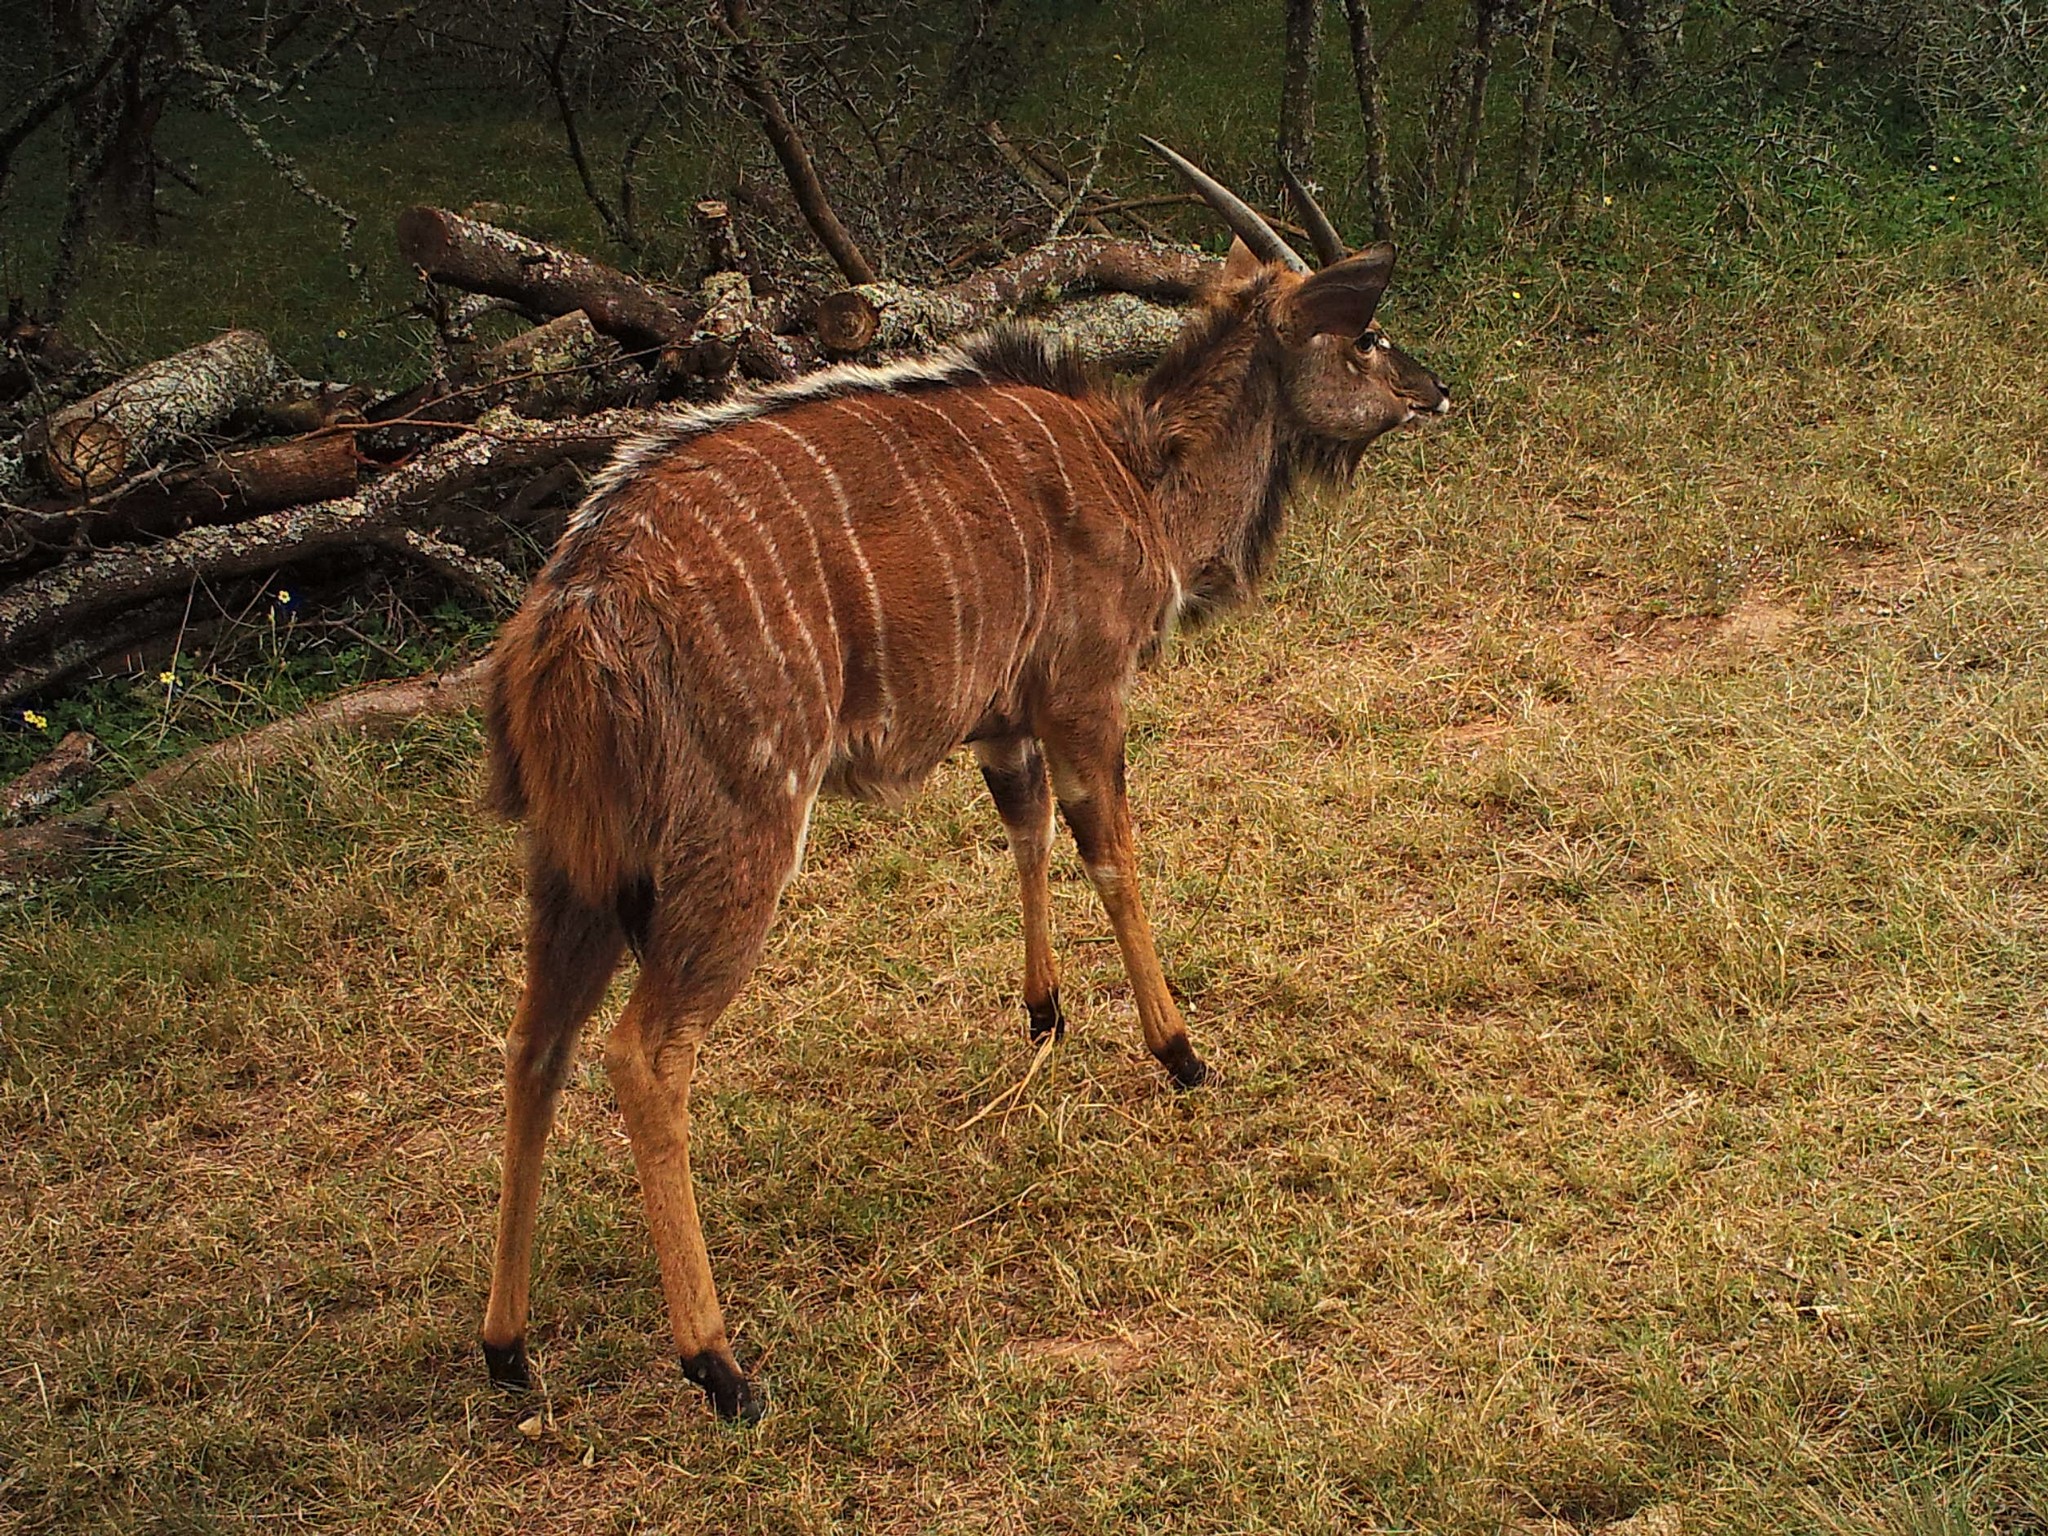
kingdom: Animalia
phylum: Chordata
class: Mammalia
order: Artiodactyla
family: Bovidae
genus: Tragelaphus
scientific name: Tragelaphus angasii
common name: Nyala
